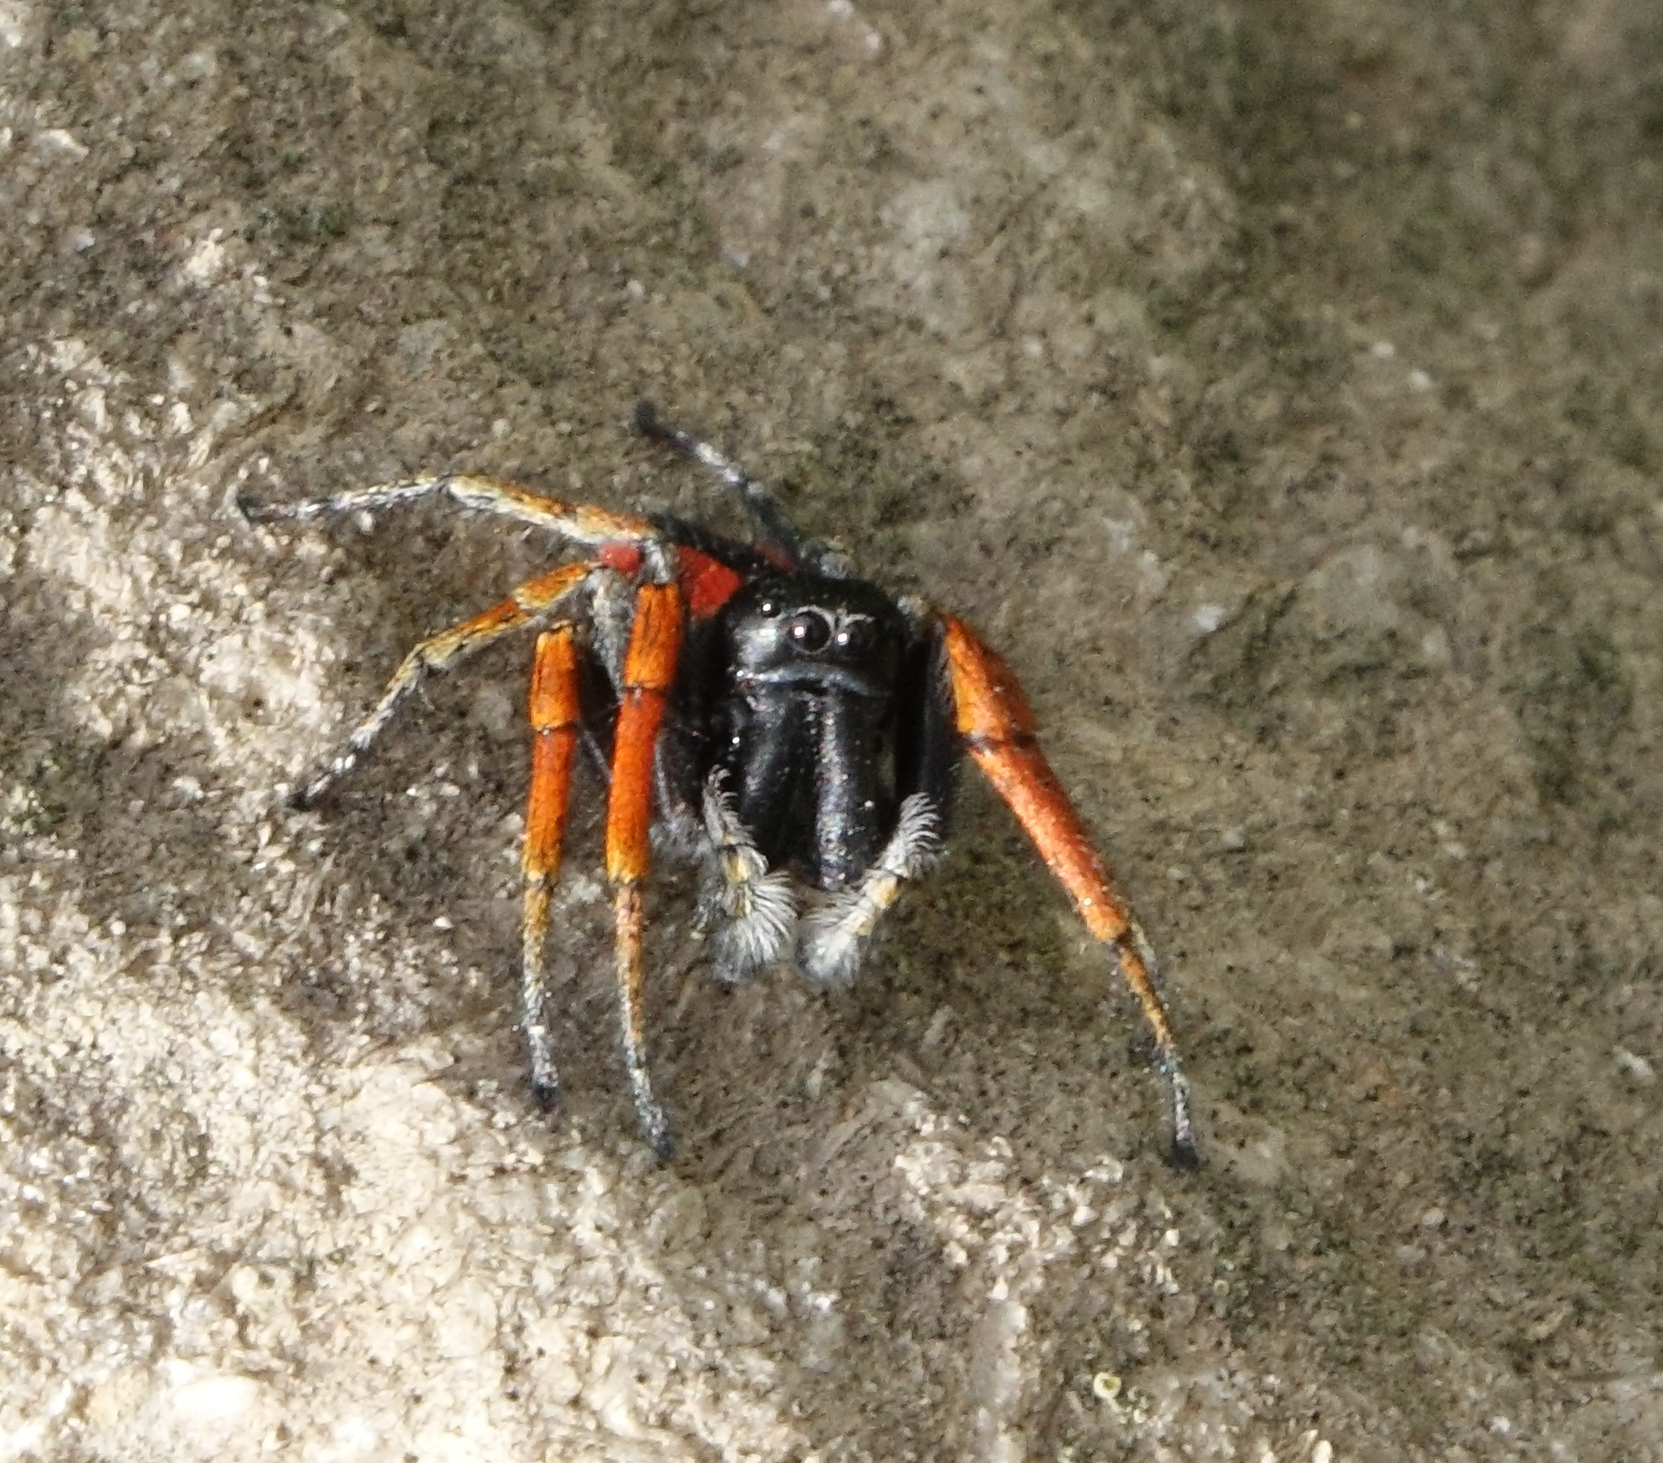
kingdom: Animalia
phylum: Arthropoda
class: Arachnida
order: Araneae
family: Salticidae
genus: Philaeus
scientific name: Philaeus chrysops
